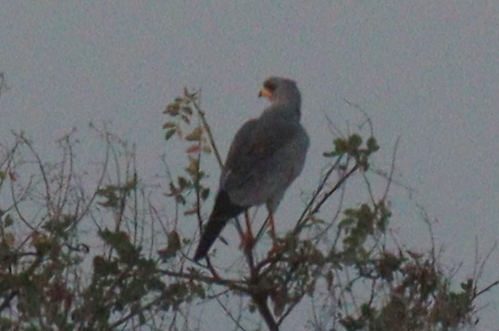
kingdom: Animalia
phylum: Chordata
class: Aves
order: Accipitriformes
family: Accipitridae
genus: Melierax
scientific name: Melierax poliopterus
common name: Eastern chanting goshawk
